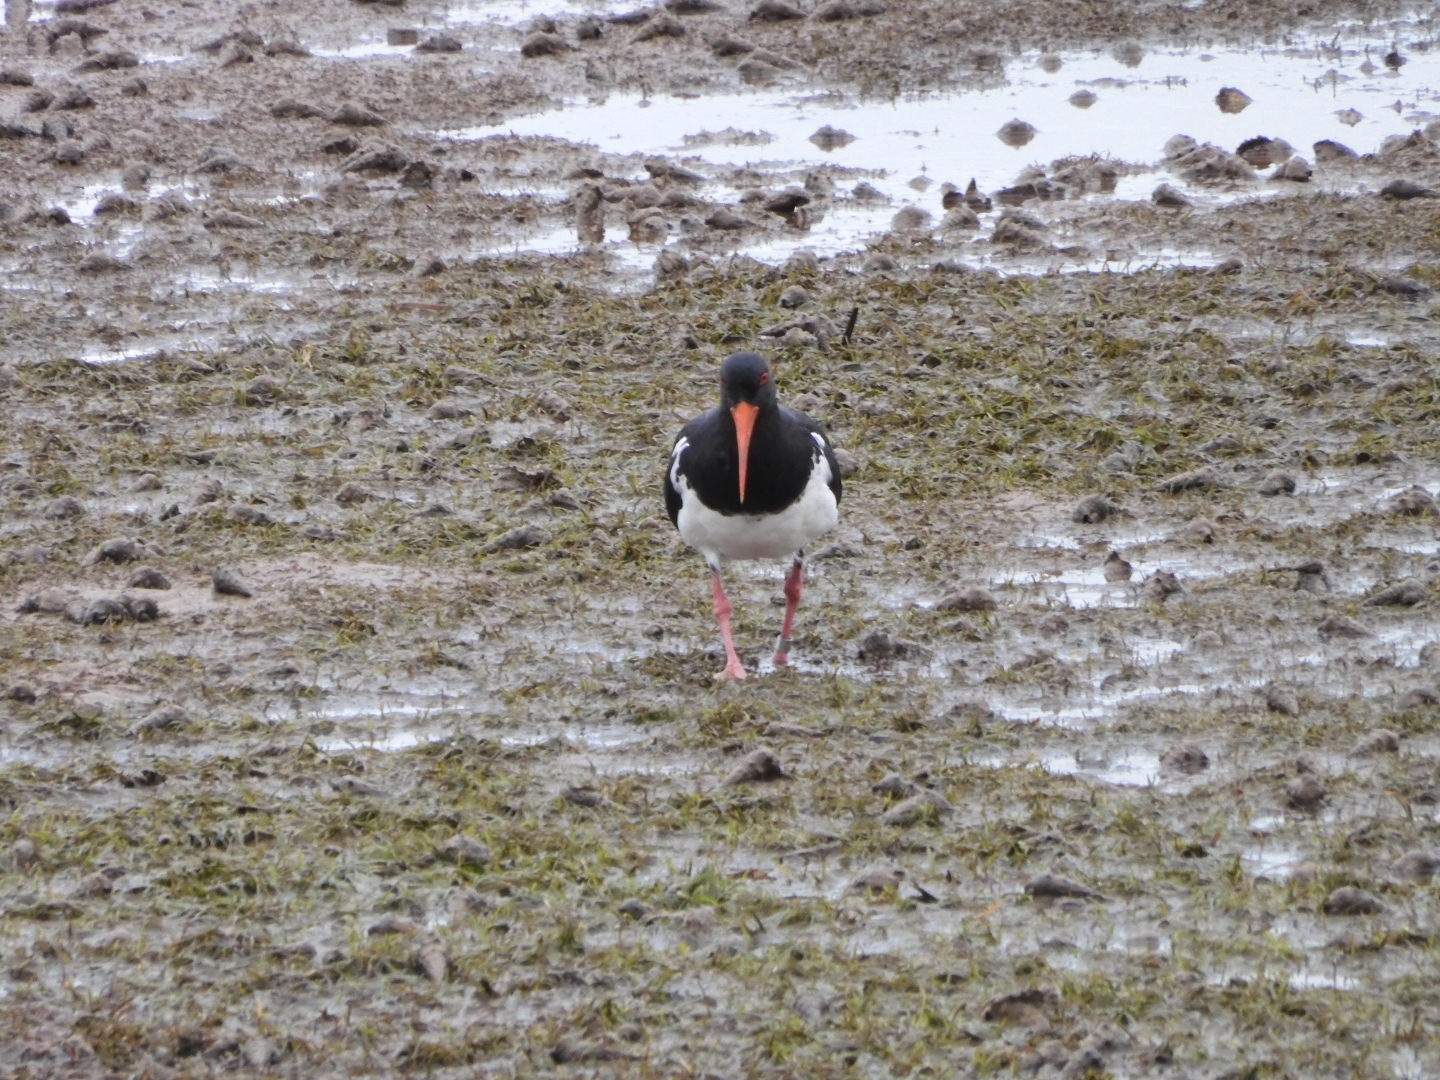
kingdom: Animalia
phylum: Chordata
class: Aves
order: Charadriiformes
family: Haematopodidae
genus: Haematopus
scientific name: Haematopus longirostris
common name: Pied oystercatcher
